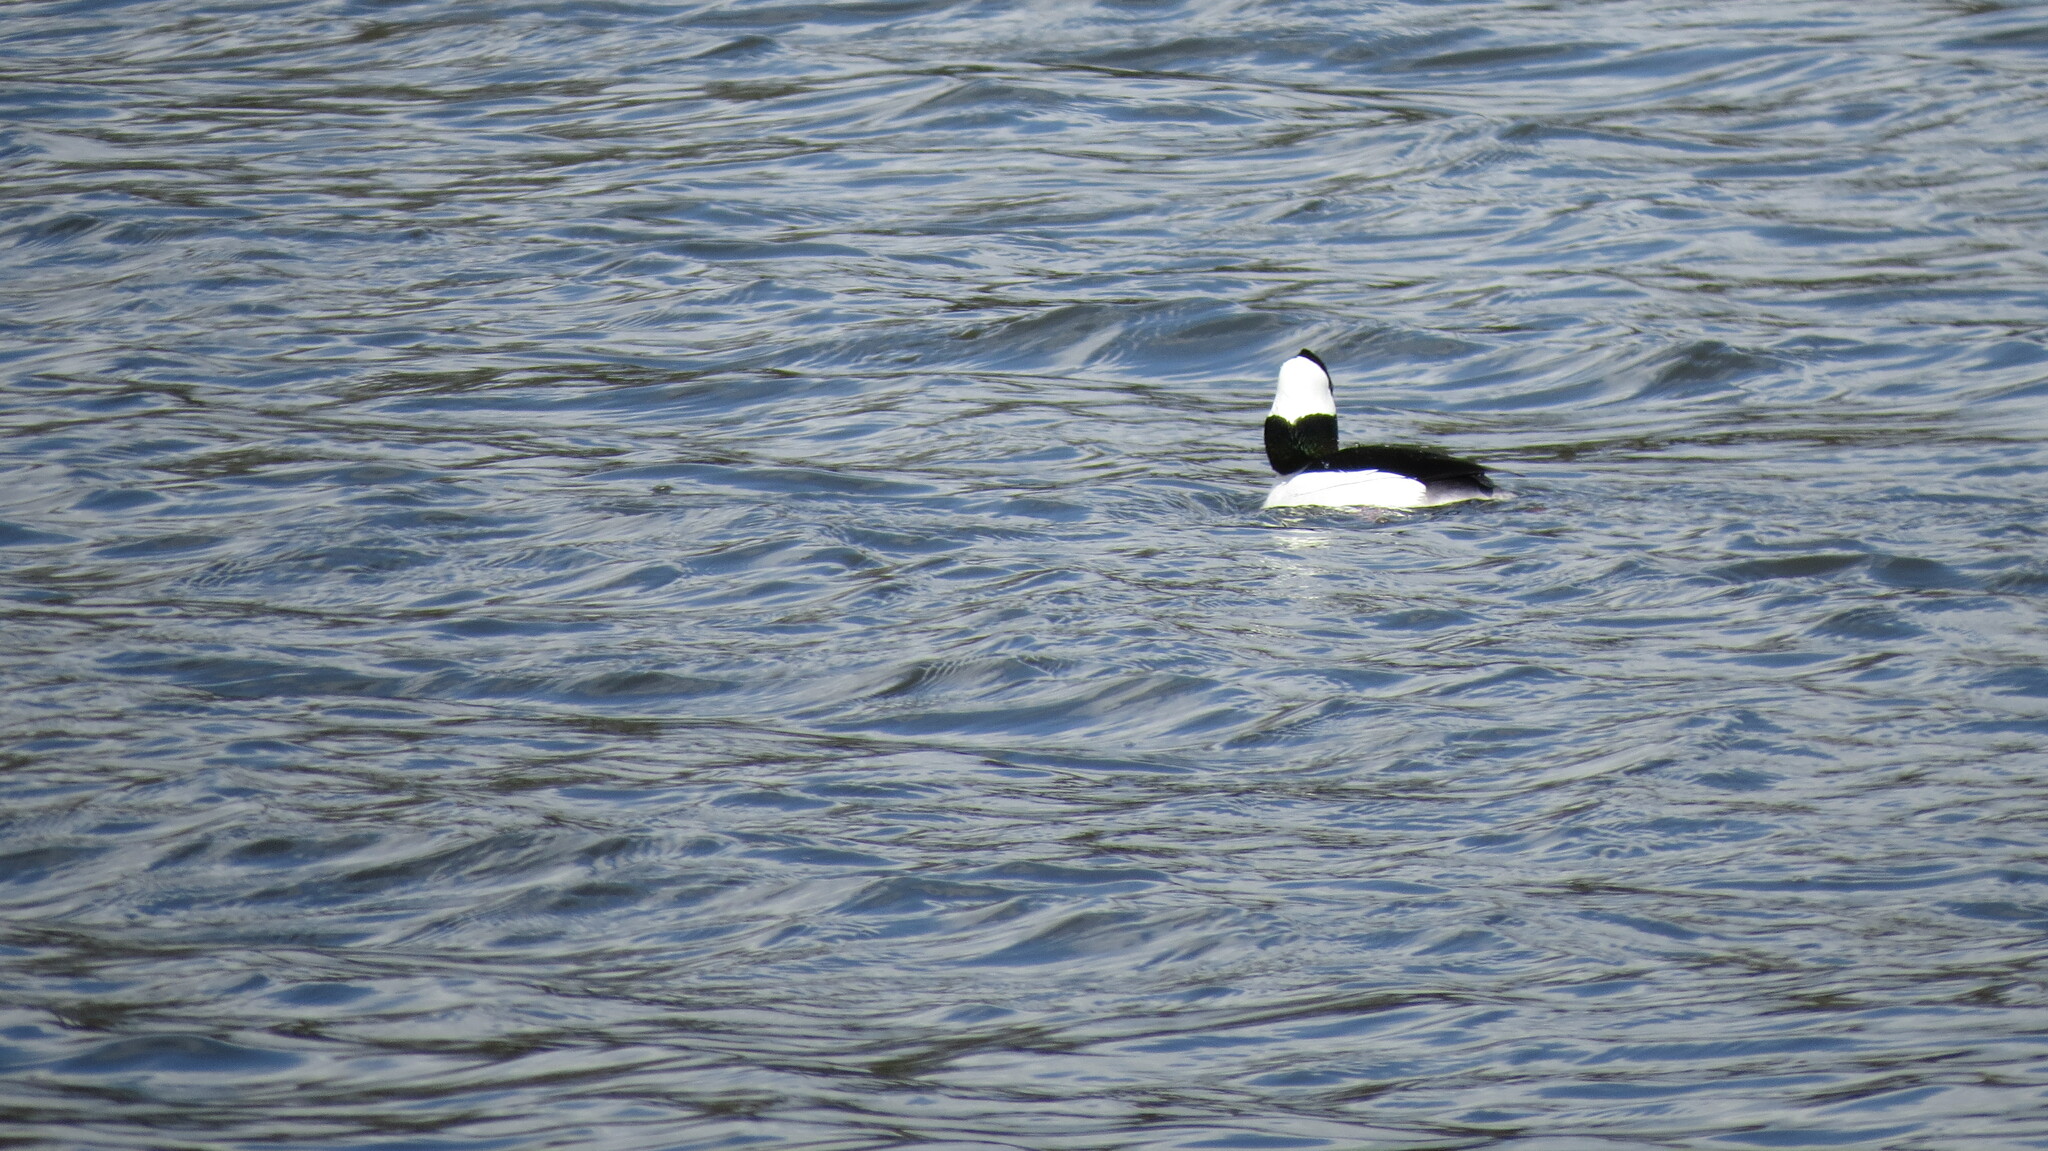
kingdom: Animalia
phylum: Chordata
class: Aves
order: Anseriformes
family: Anatidae
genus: Bucephala
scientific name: Bucephala albeola
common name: Bufflehead
